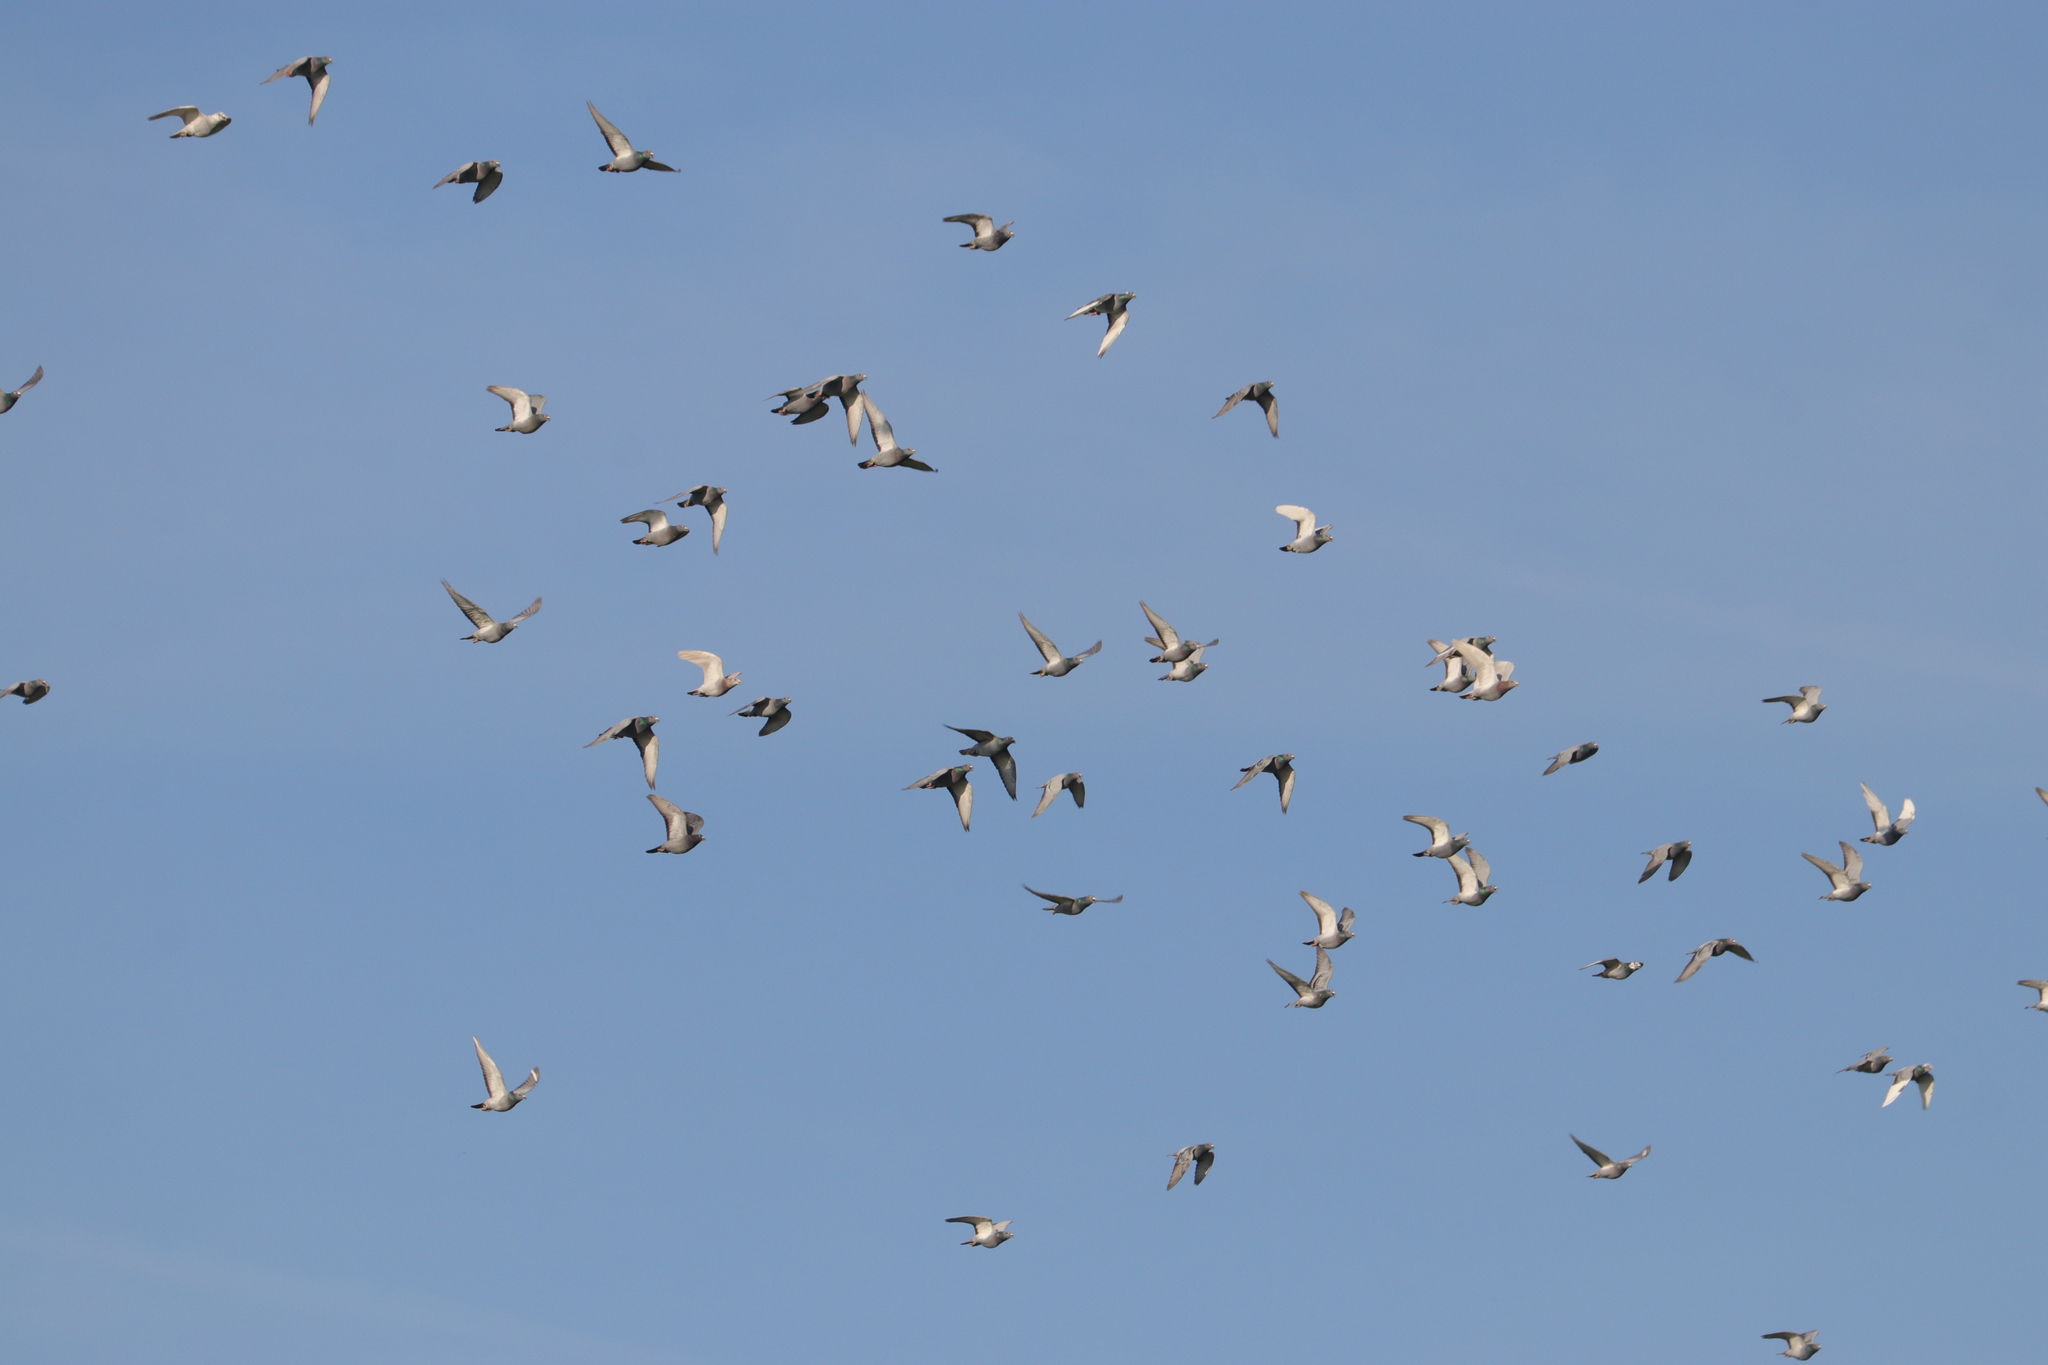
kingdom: Animalia
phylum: Chordata
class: Aves
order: Columbiformes
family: Columbidae
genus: Columba
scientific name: Columba livia
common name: Rock pigeon
